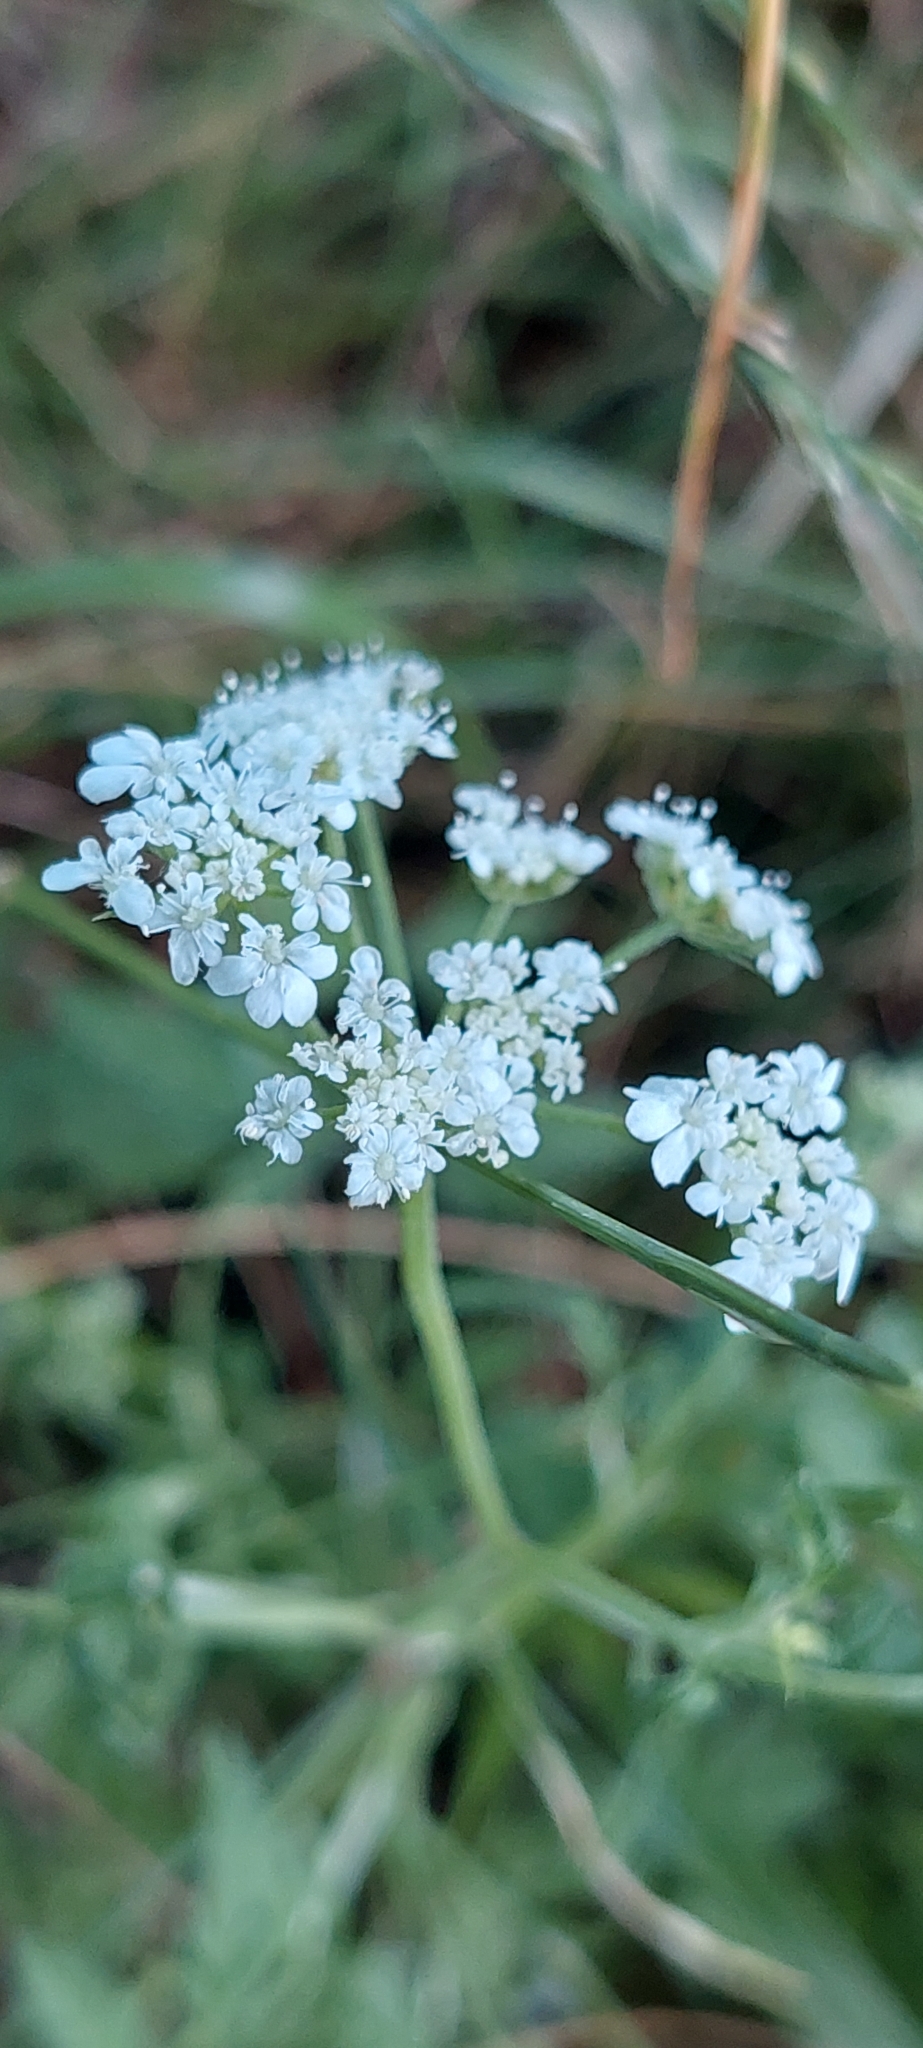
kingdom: Plantae
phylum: Tracheophyta
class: Magnoliopsida
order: Apiales
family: Apiaceae
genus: Torilis
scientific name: Torilis arvensis
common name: Spreading hedge-parsley
